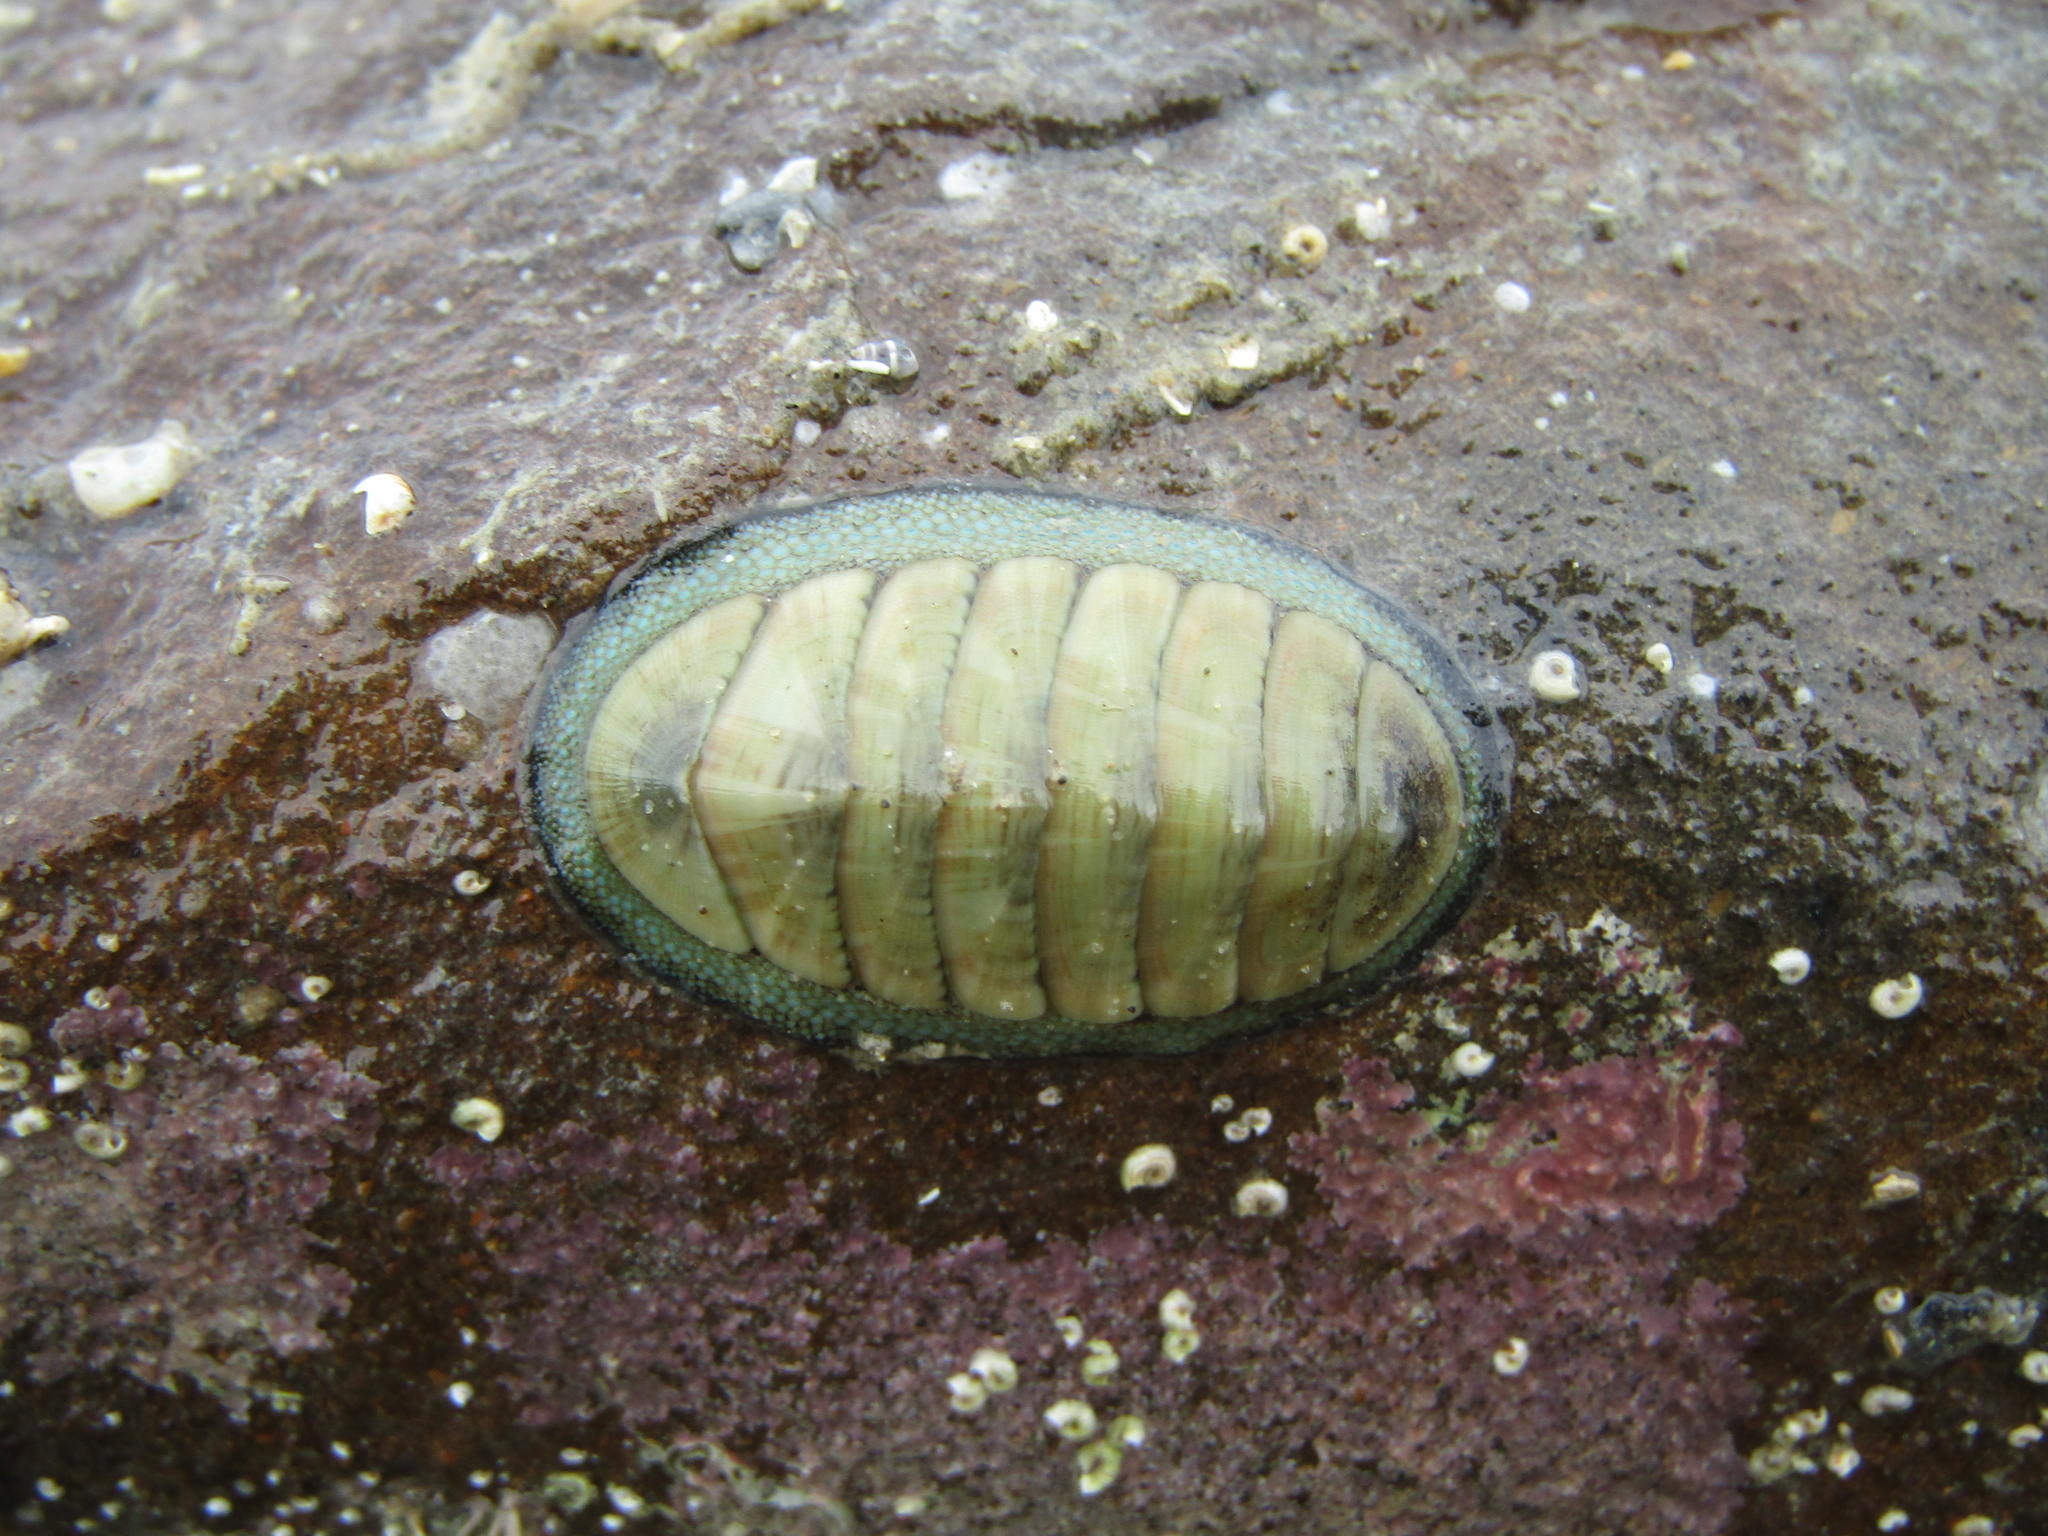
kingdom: Animalia
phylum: Mollusca
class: Polyplacophora
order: Chitonida
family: Chitonidae
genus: Chiton
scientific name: Chiton glaucus
